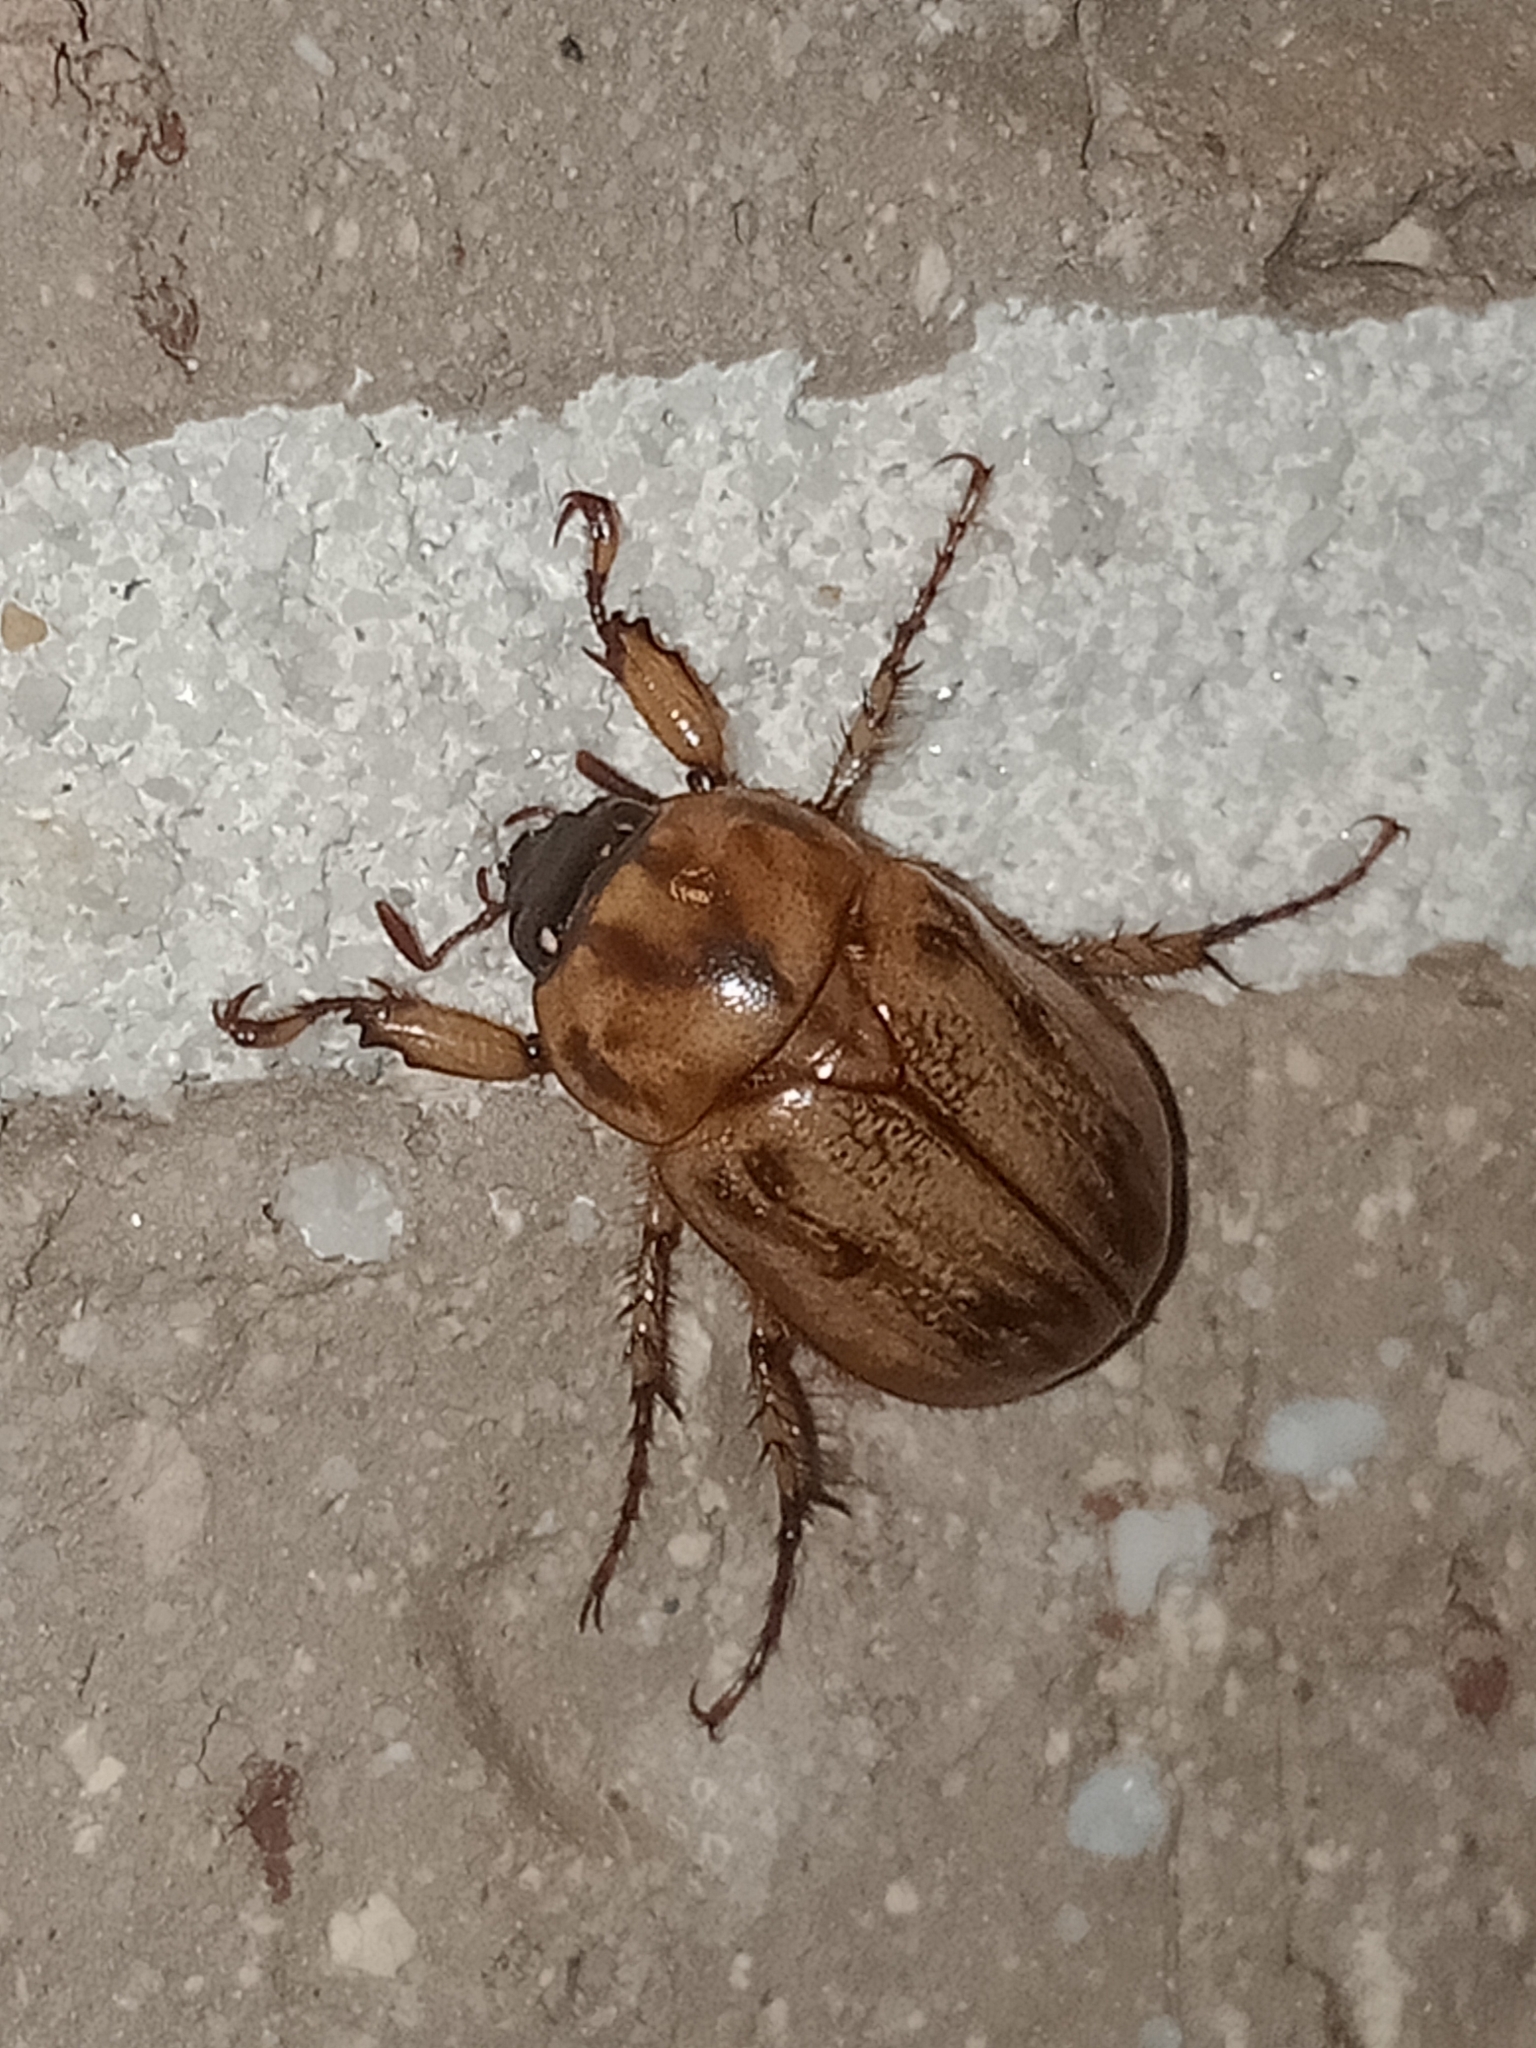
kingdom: Animalia
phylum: Arthropoda
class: Insecta
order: Coleoptera
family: Scarabaeidae
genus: Cyclocephala
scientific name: Cyclocephala signaticollis
